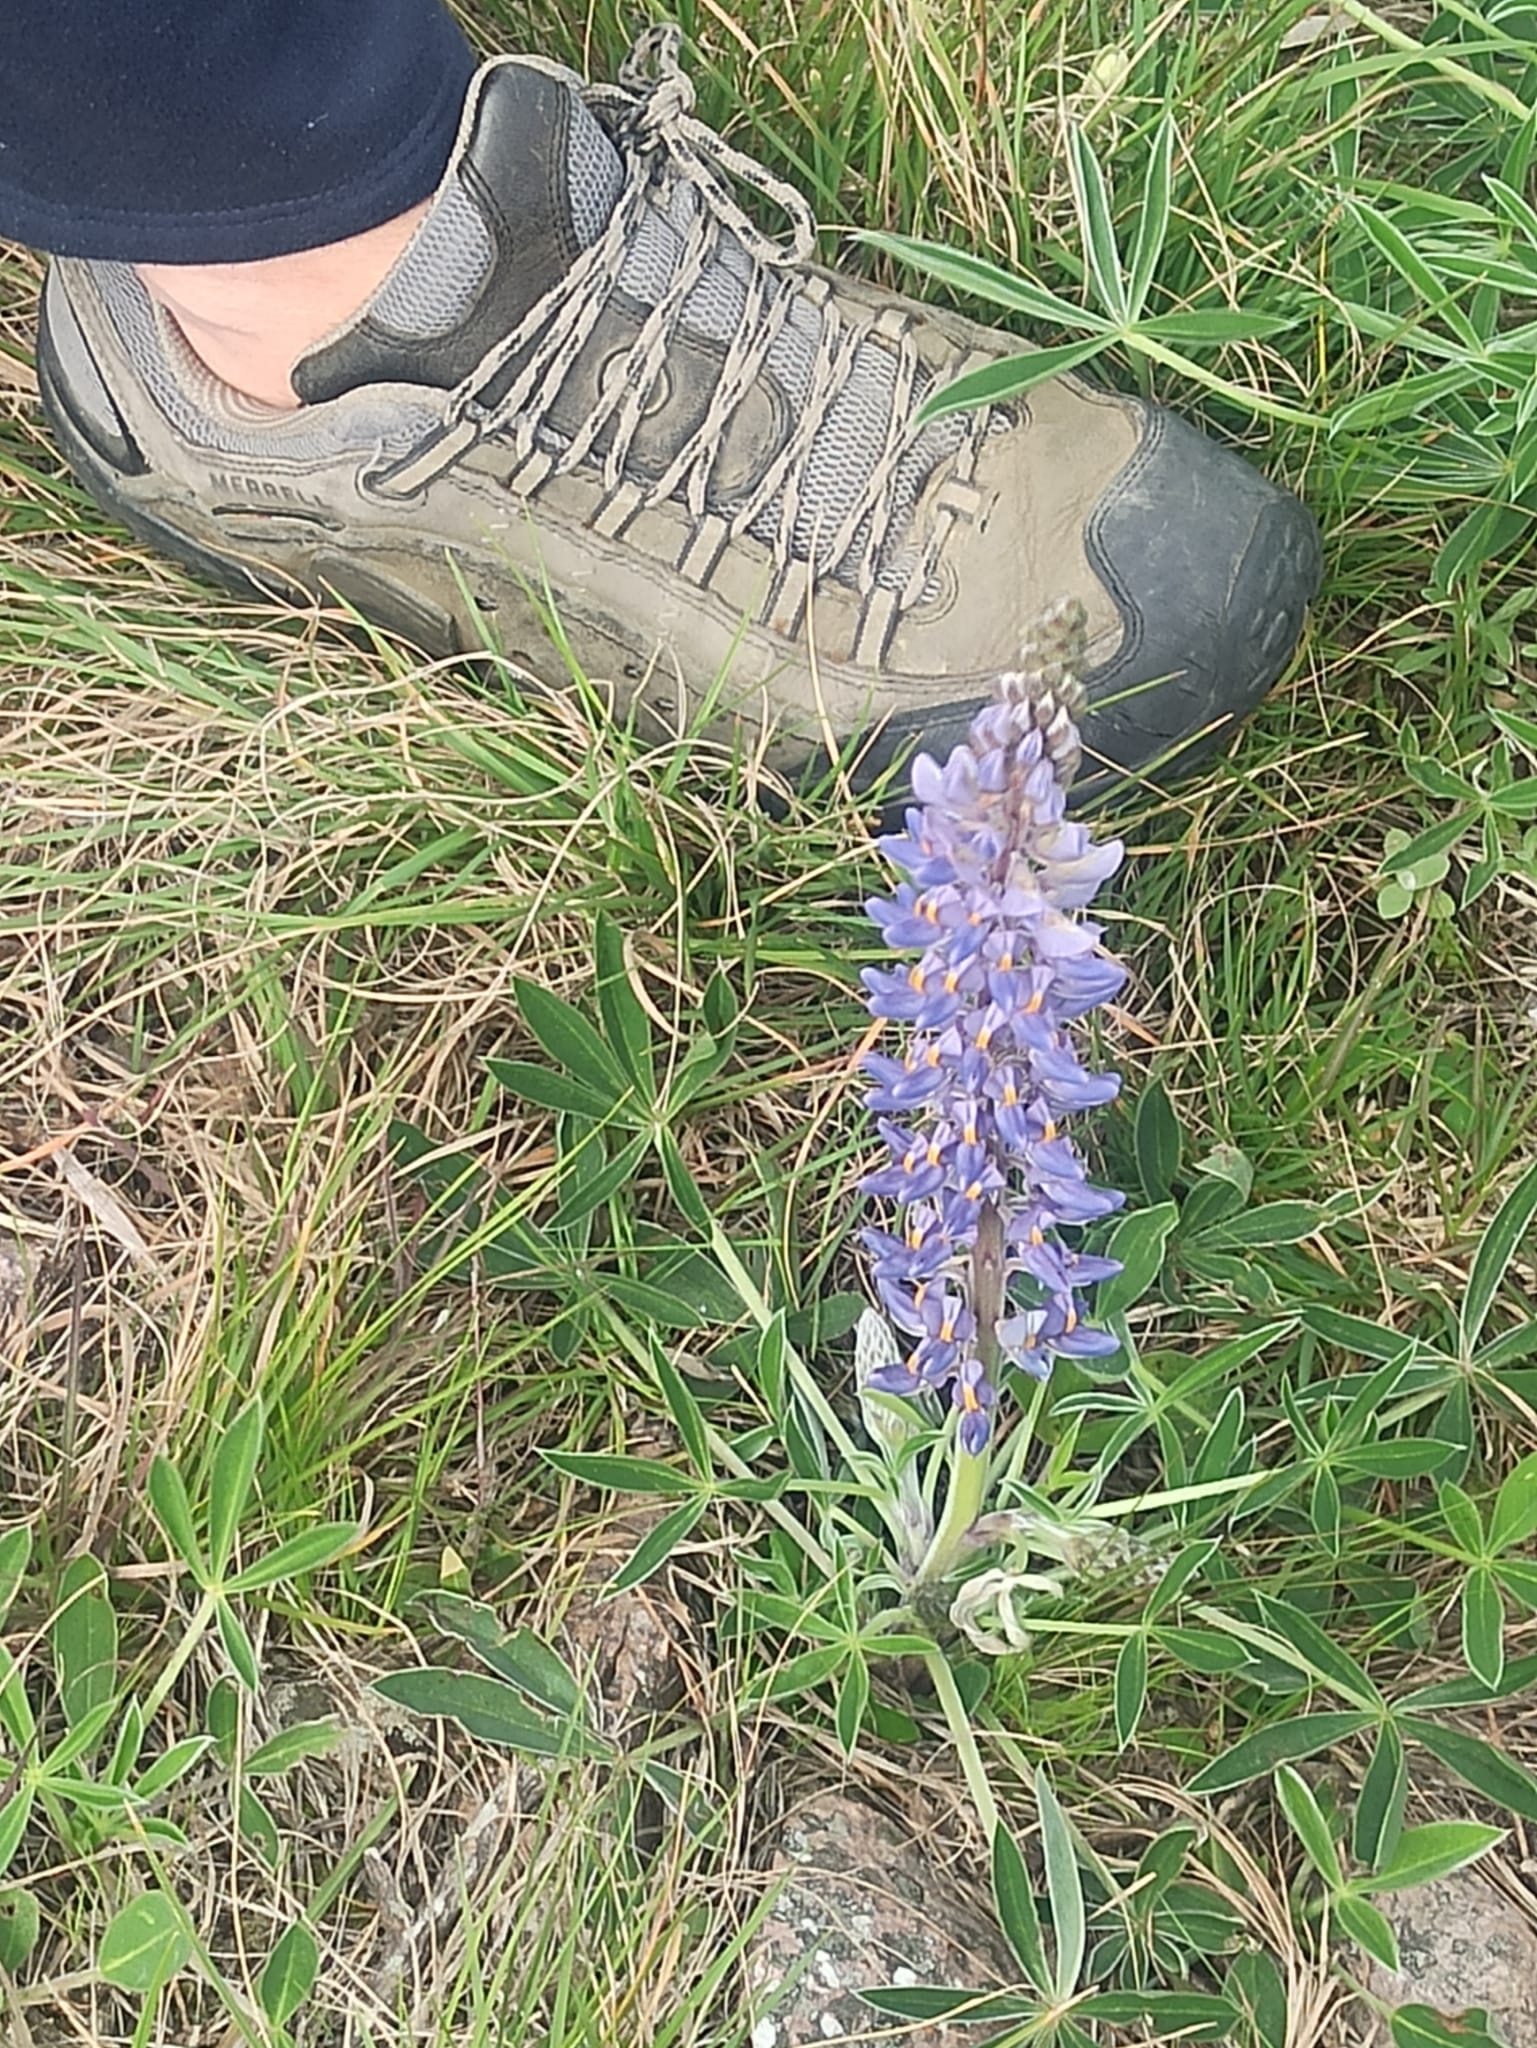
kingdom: Plantae
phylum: Tracheophyta
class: Magnoliopsida
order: Fabales
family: Fabaceae
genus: Lupinus
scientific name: Lupinus multiflorus
